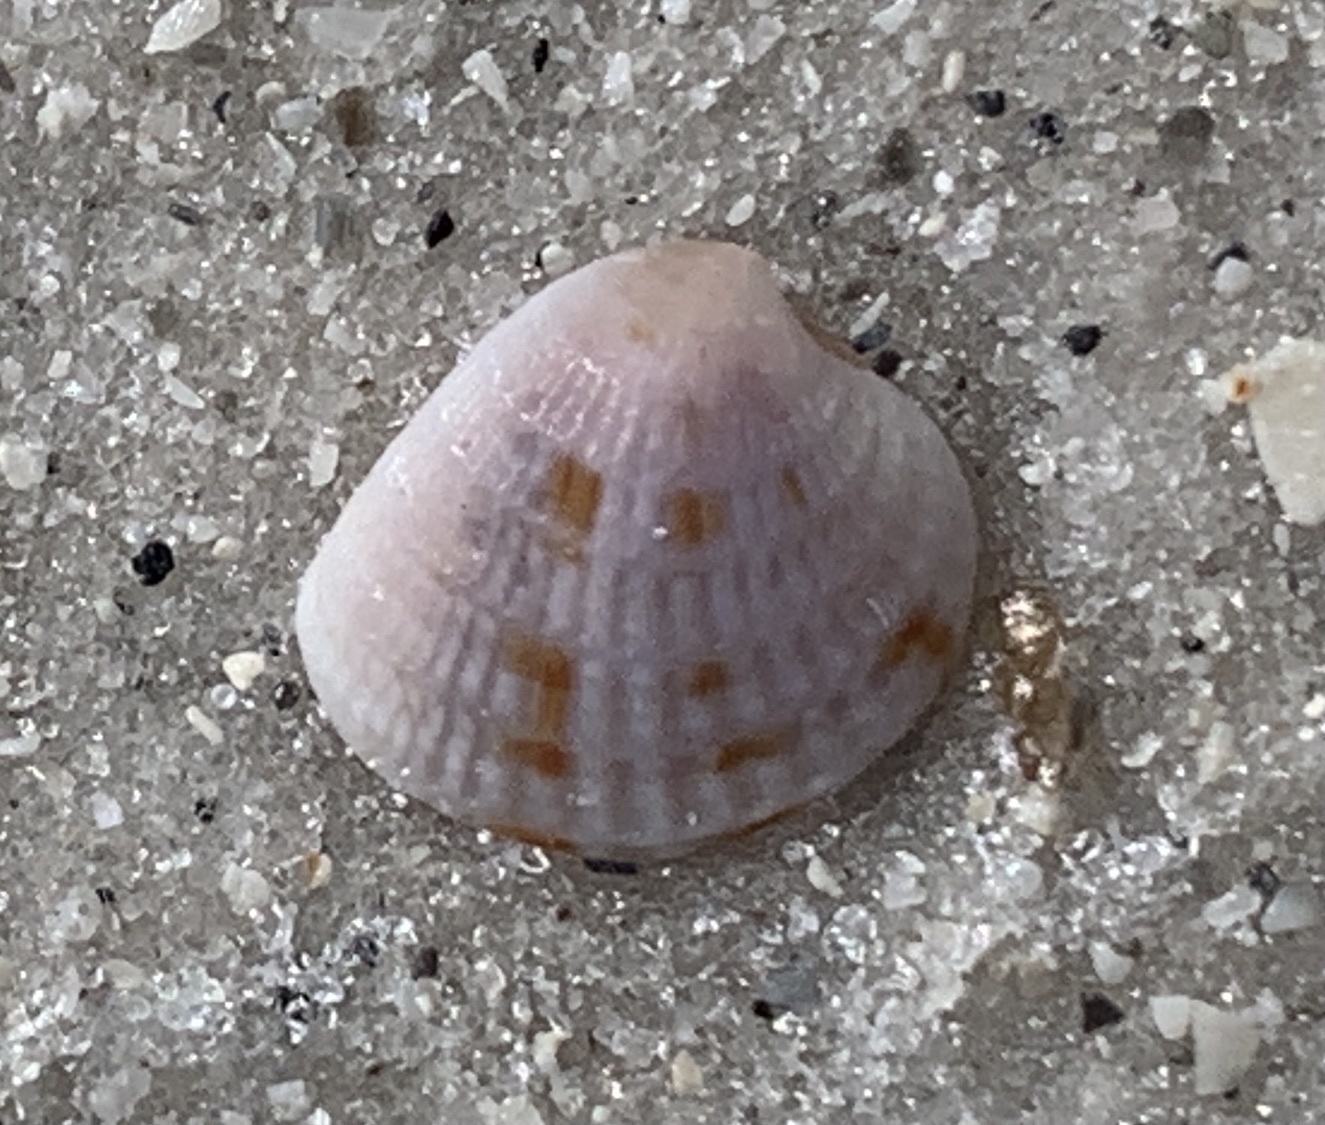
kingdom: Animalia
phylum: Mollusca
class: Bivalvia
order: Venerida
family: Veneridae
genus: Chione
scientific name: Chione elevata
